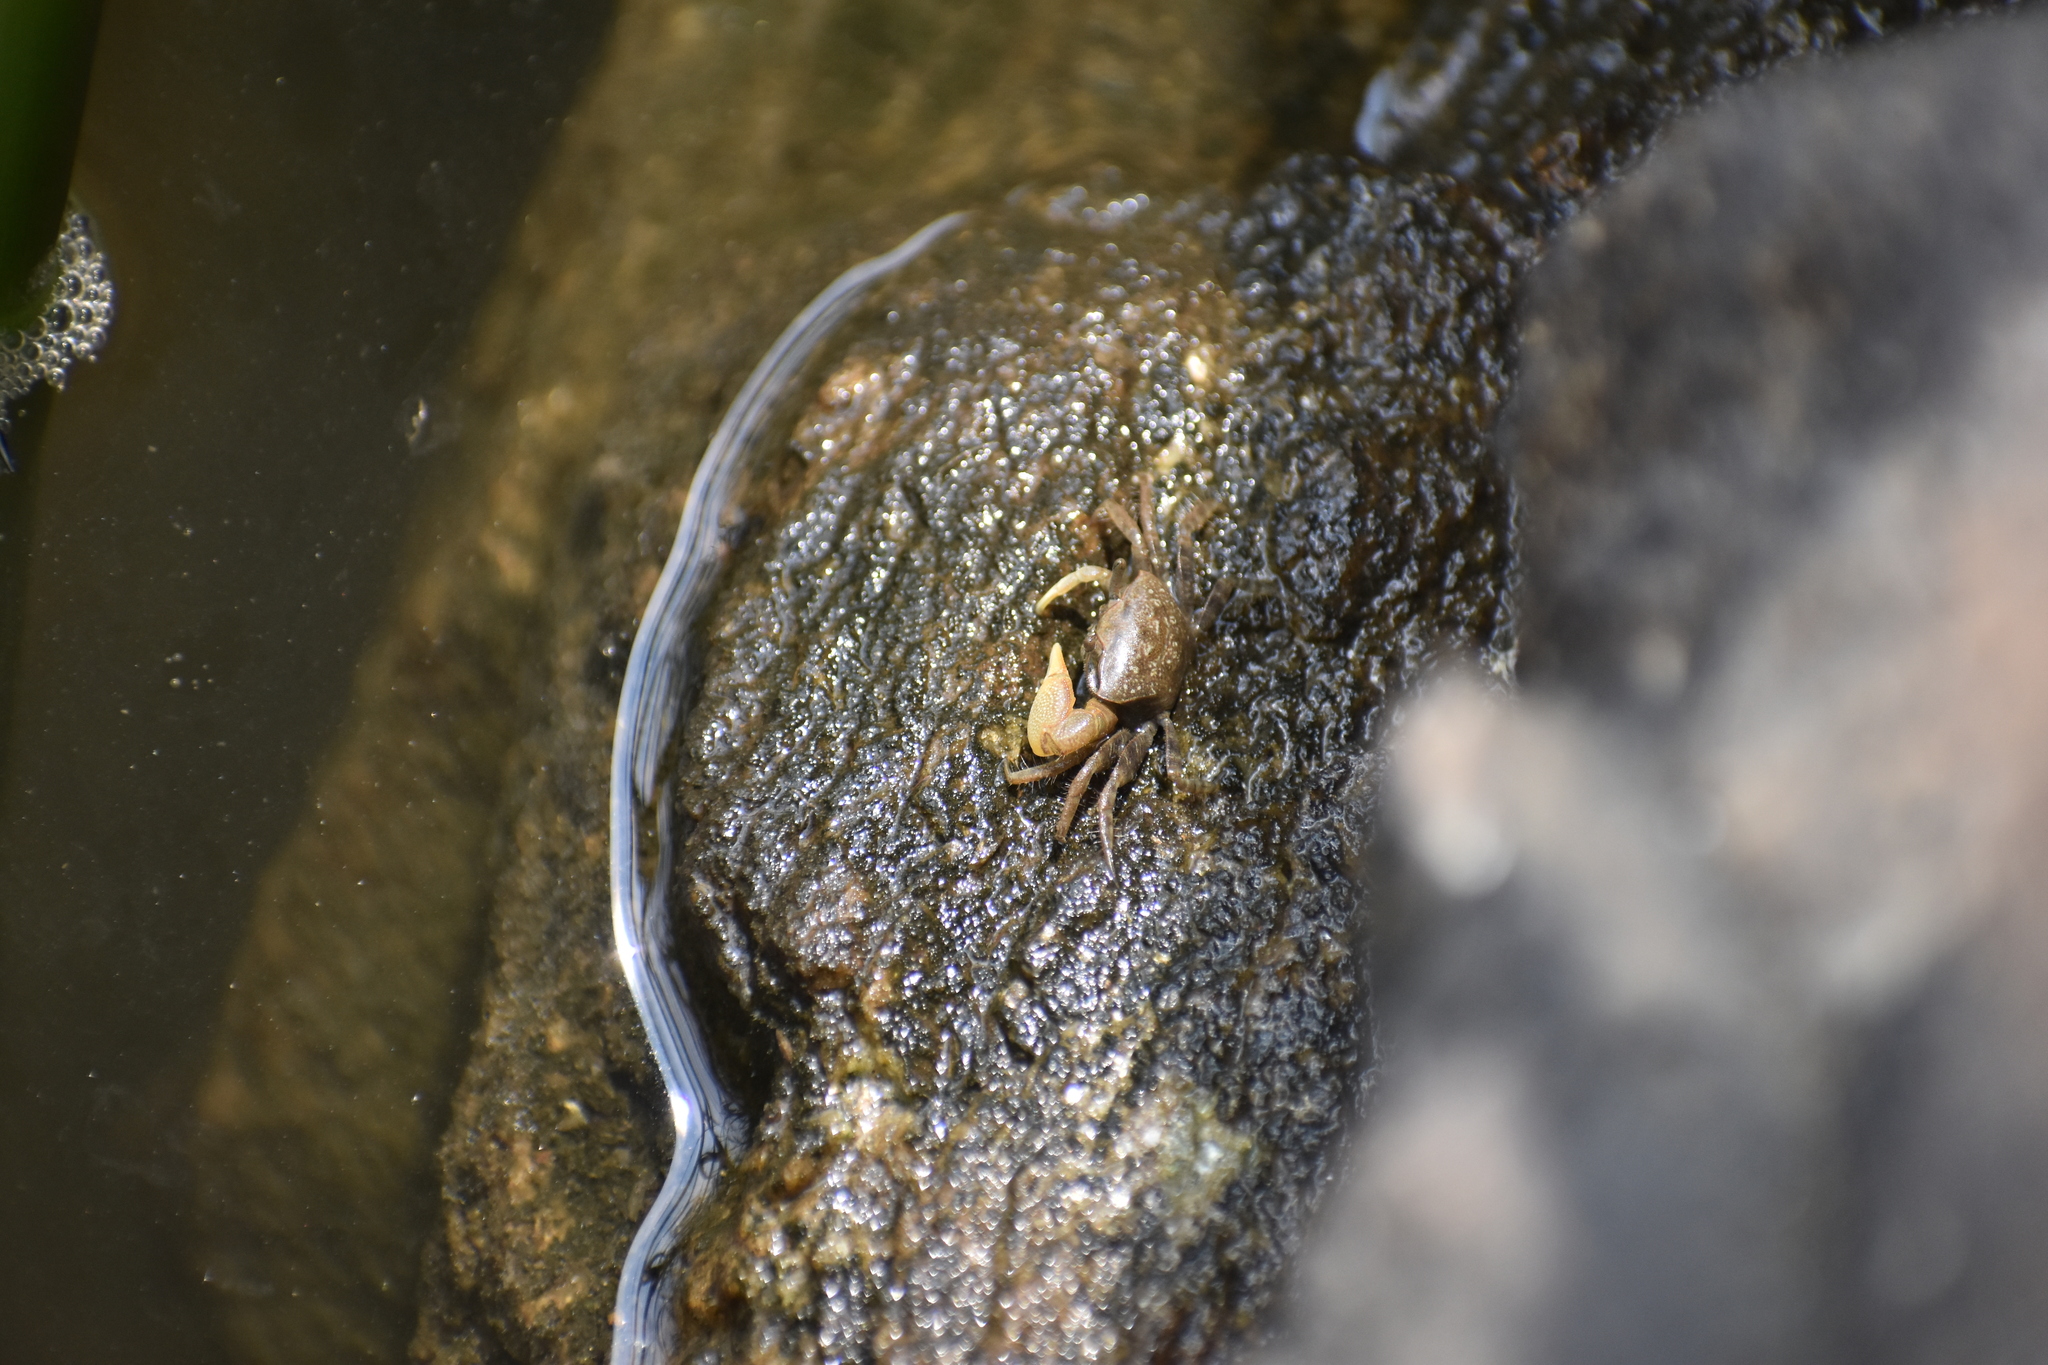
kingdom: Animalia
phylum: Arthropoda
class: Malacostraca
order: Decapoda
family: Ocypodidae
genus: Leptuca
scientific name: Leptuca pugilator
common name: Atlantic sand fiddler crab
